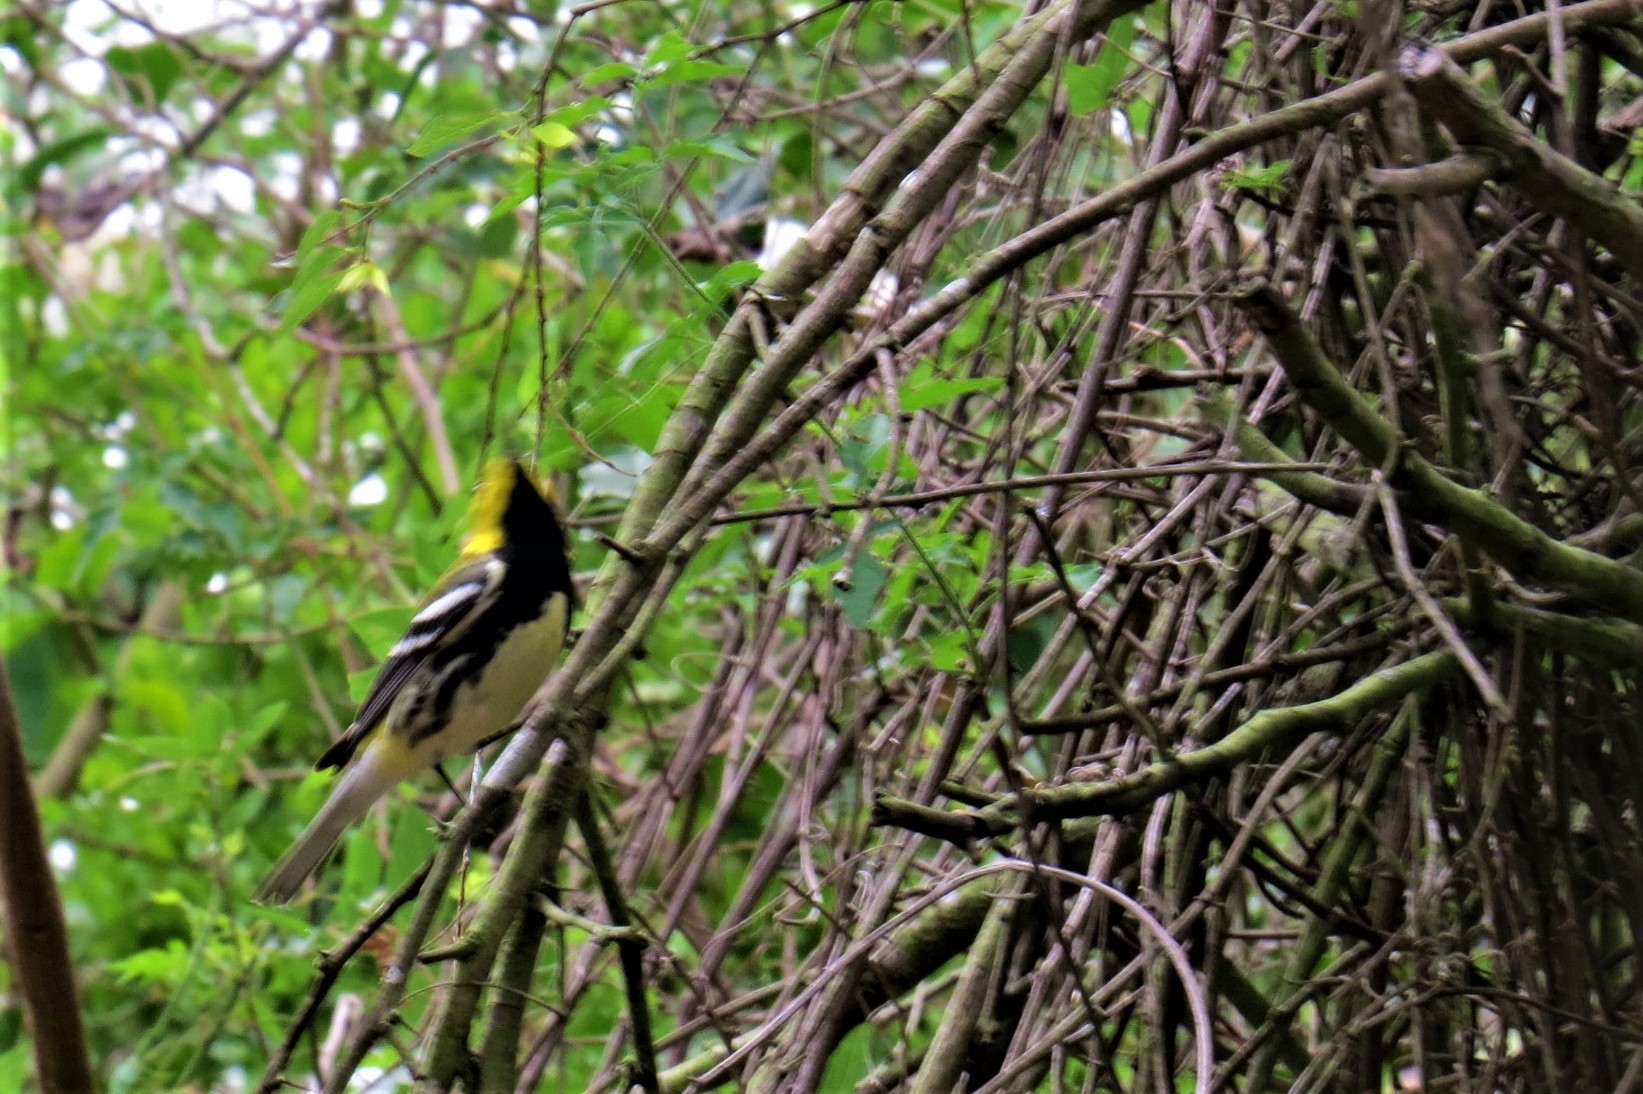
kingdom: Animalia
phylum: Chordata
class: Aves
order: Passeriformes
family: Parulidae
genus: Setophaga
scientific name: Setophaga virens
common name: Black-throated green warbler
